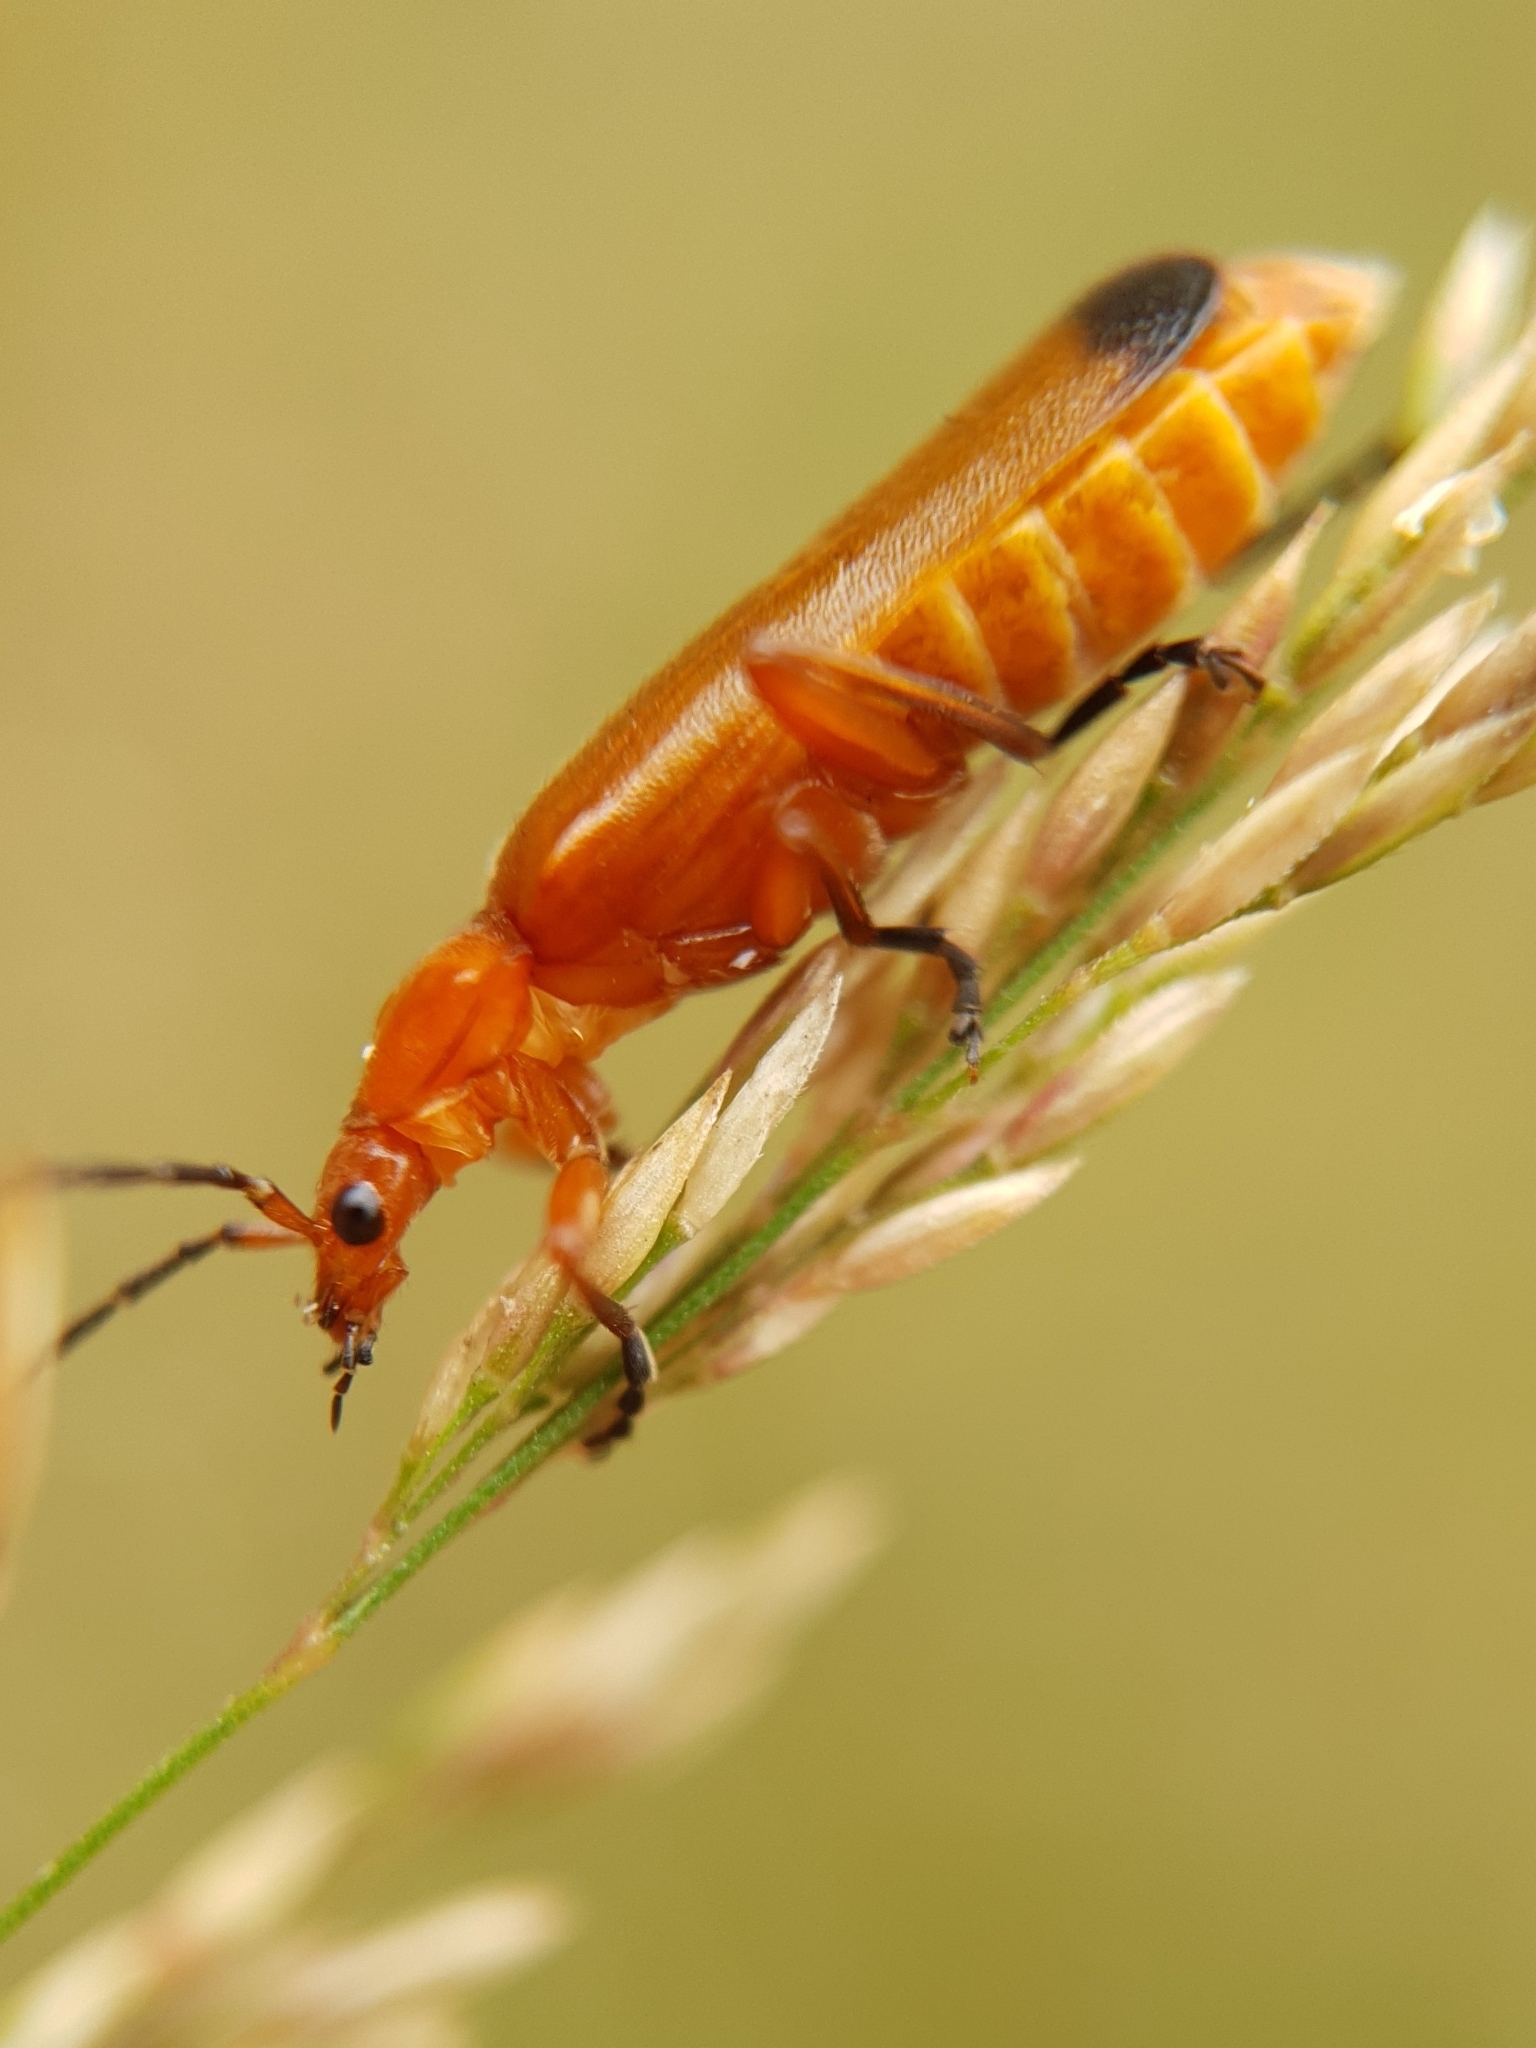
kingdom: Animalia
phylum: Arthropoda
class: Insecta
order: Coleoptera
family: Cantharidae
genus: Rhagonycha
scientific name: Rhagonycha fulva
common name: Common red soldier beetle
